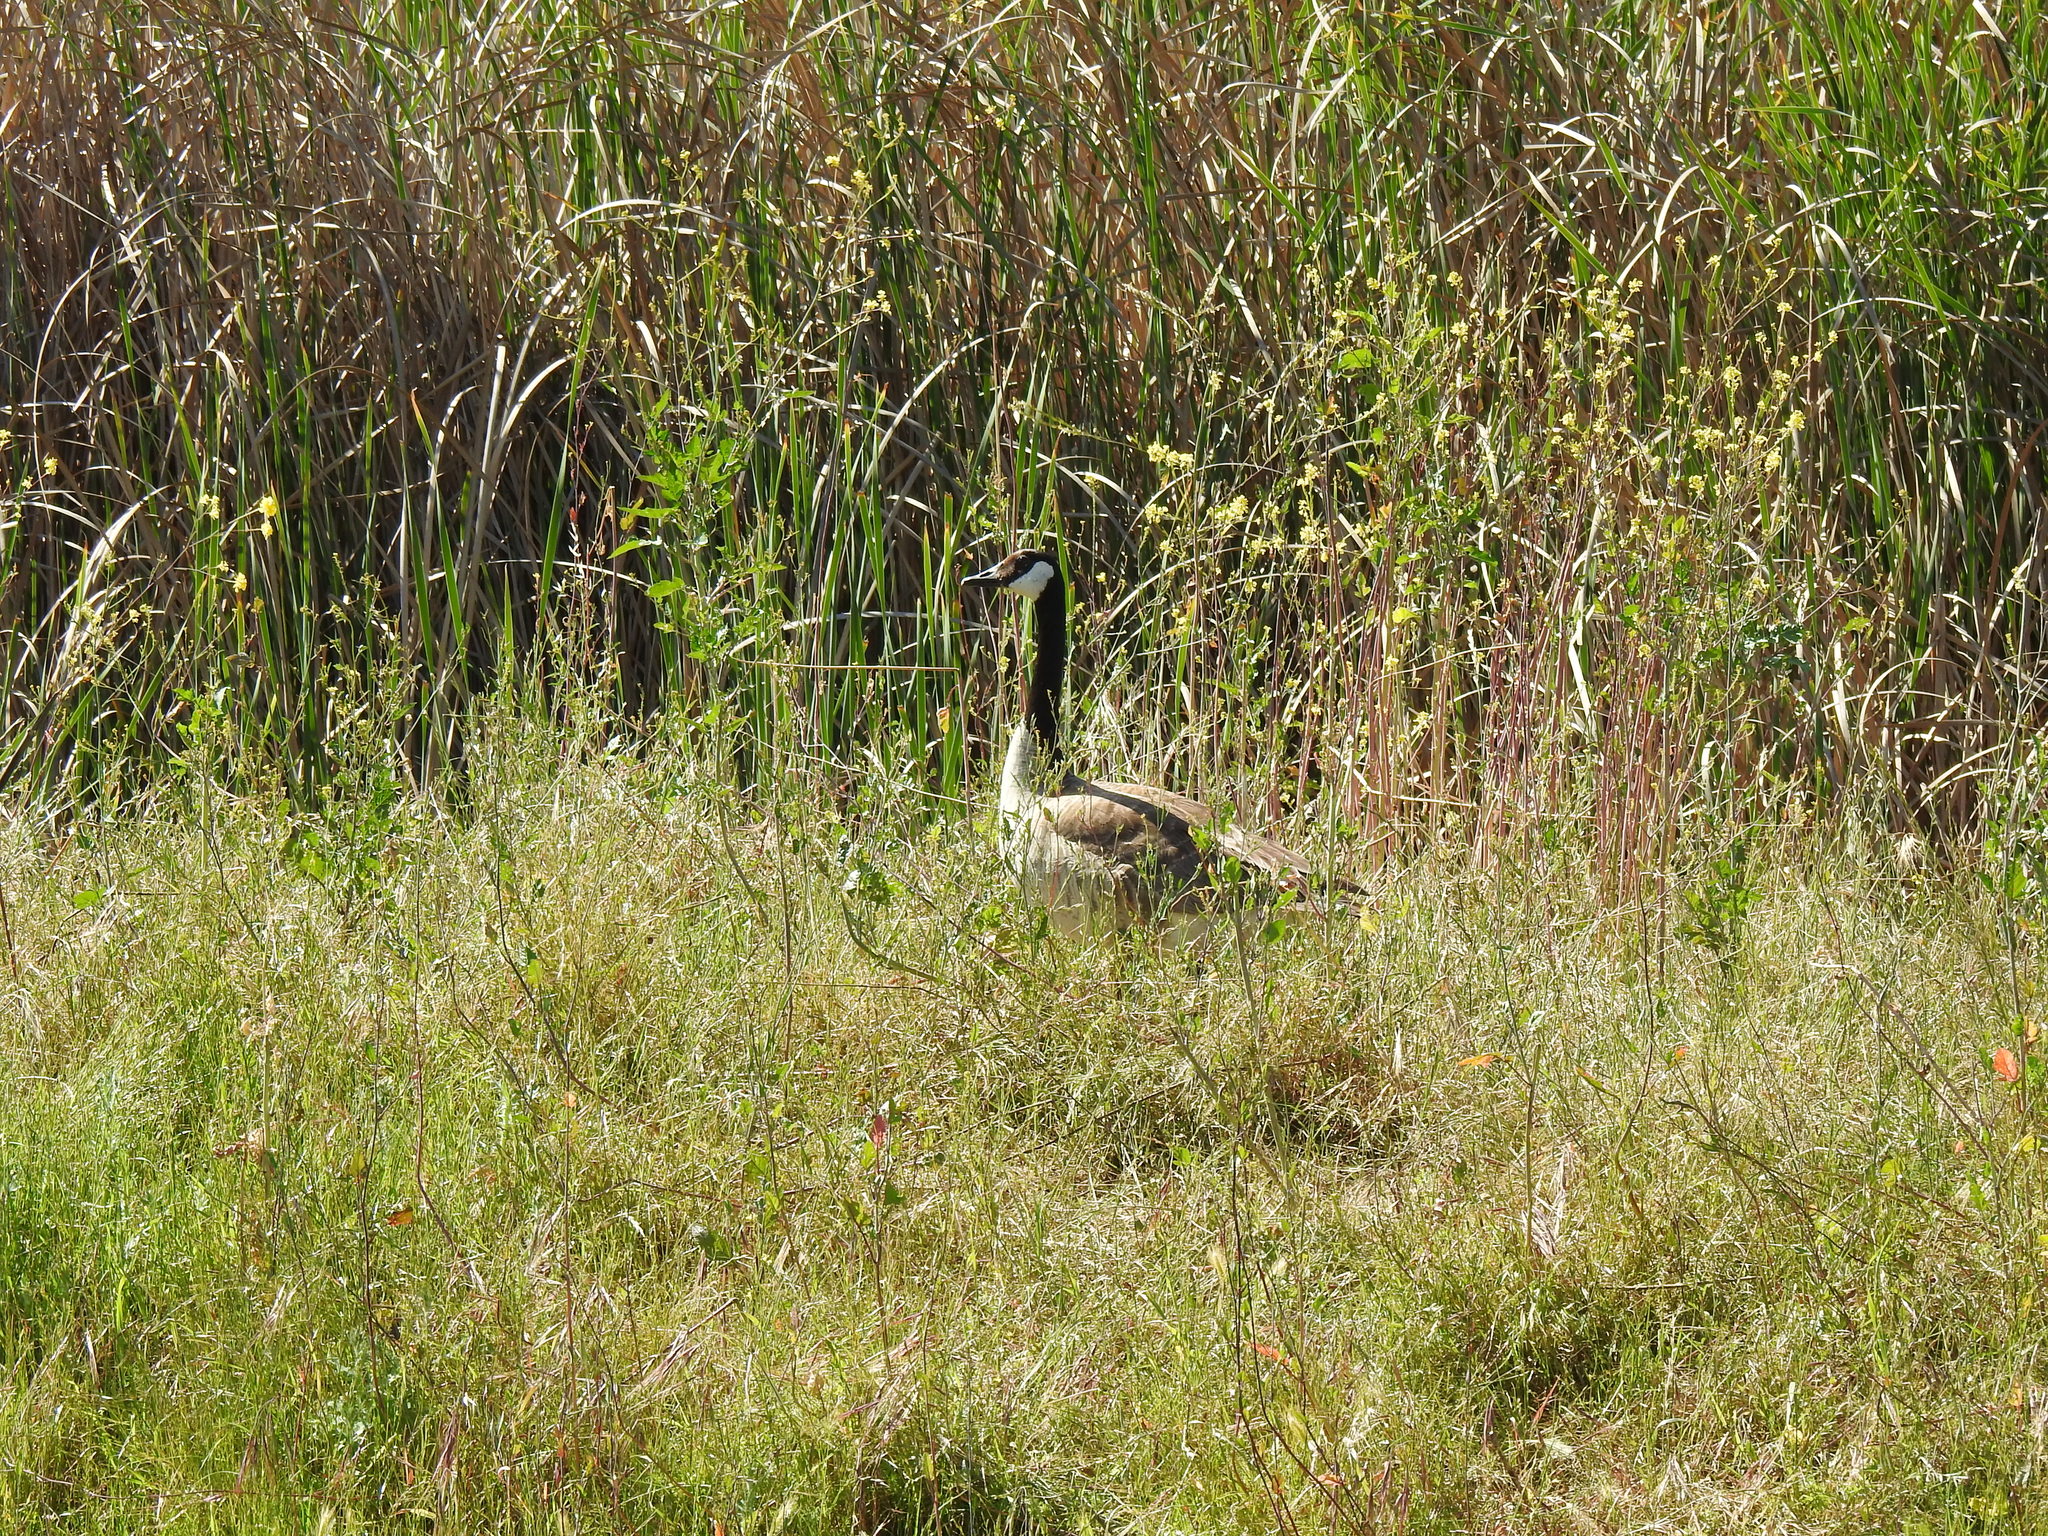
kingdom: Animalia
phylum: Chordata
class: Aves
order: Anseriformes
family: Anatidae
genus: Branta
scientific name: Branta canadensis
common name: Canada goose
